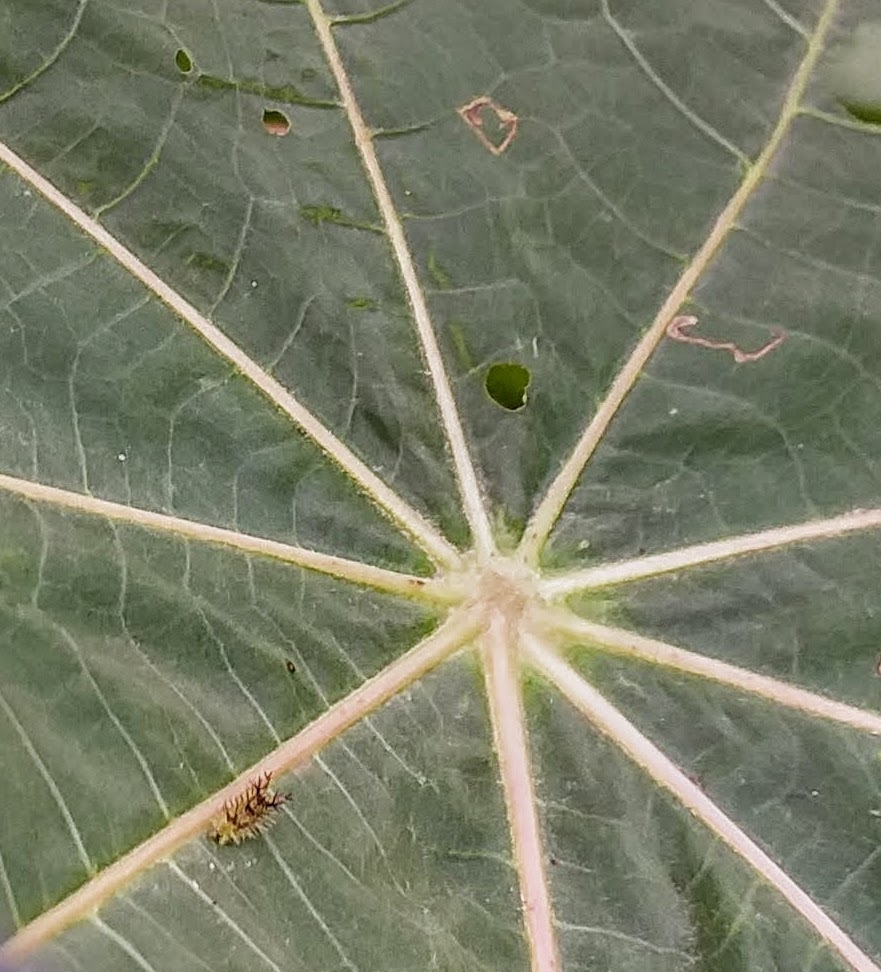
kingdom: Animalia
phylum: Arthropoda
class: Insecta
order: Lepidoptera
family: Nymphalidae
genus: Ariadne
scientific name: Ariadne merione
